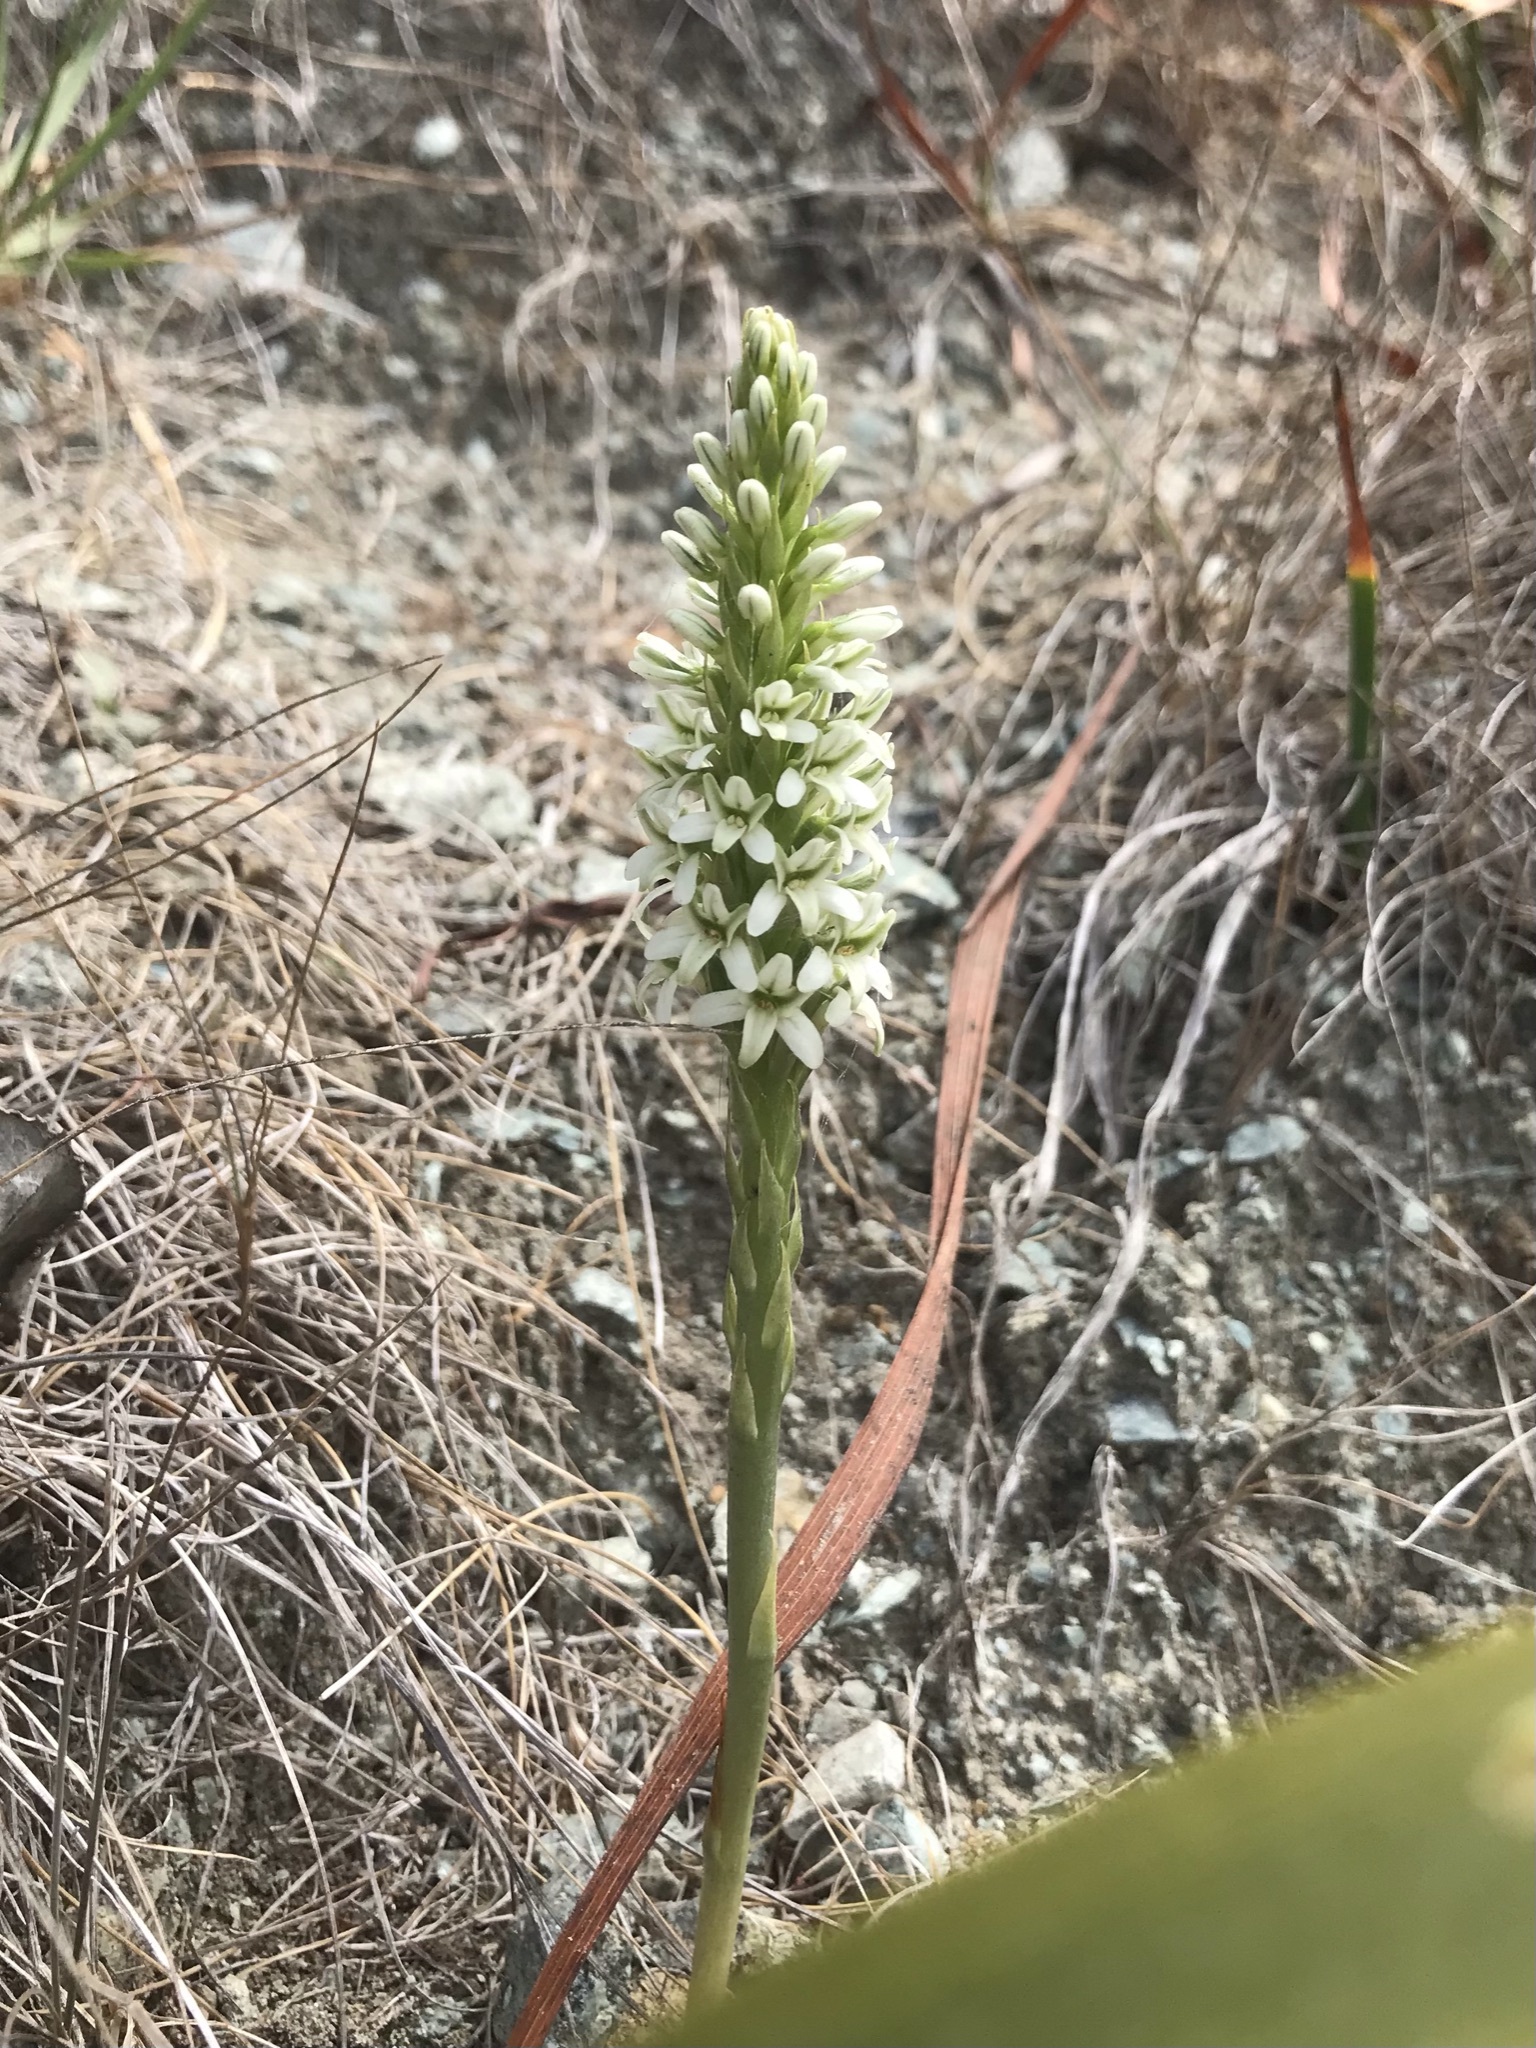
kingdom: Plantae
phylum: Tracheophyta
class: Liliopsida
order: Asparagales
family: Orchidaceae
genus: Platanthera
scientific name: Platanthera elegans
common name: Coast piperia
